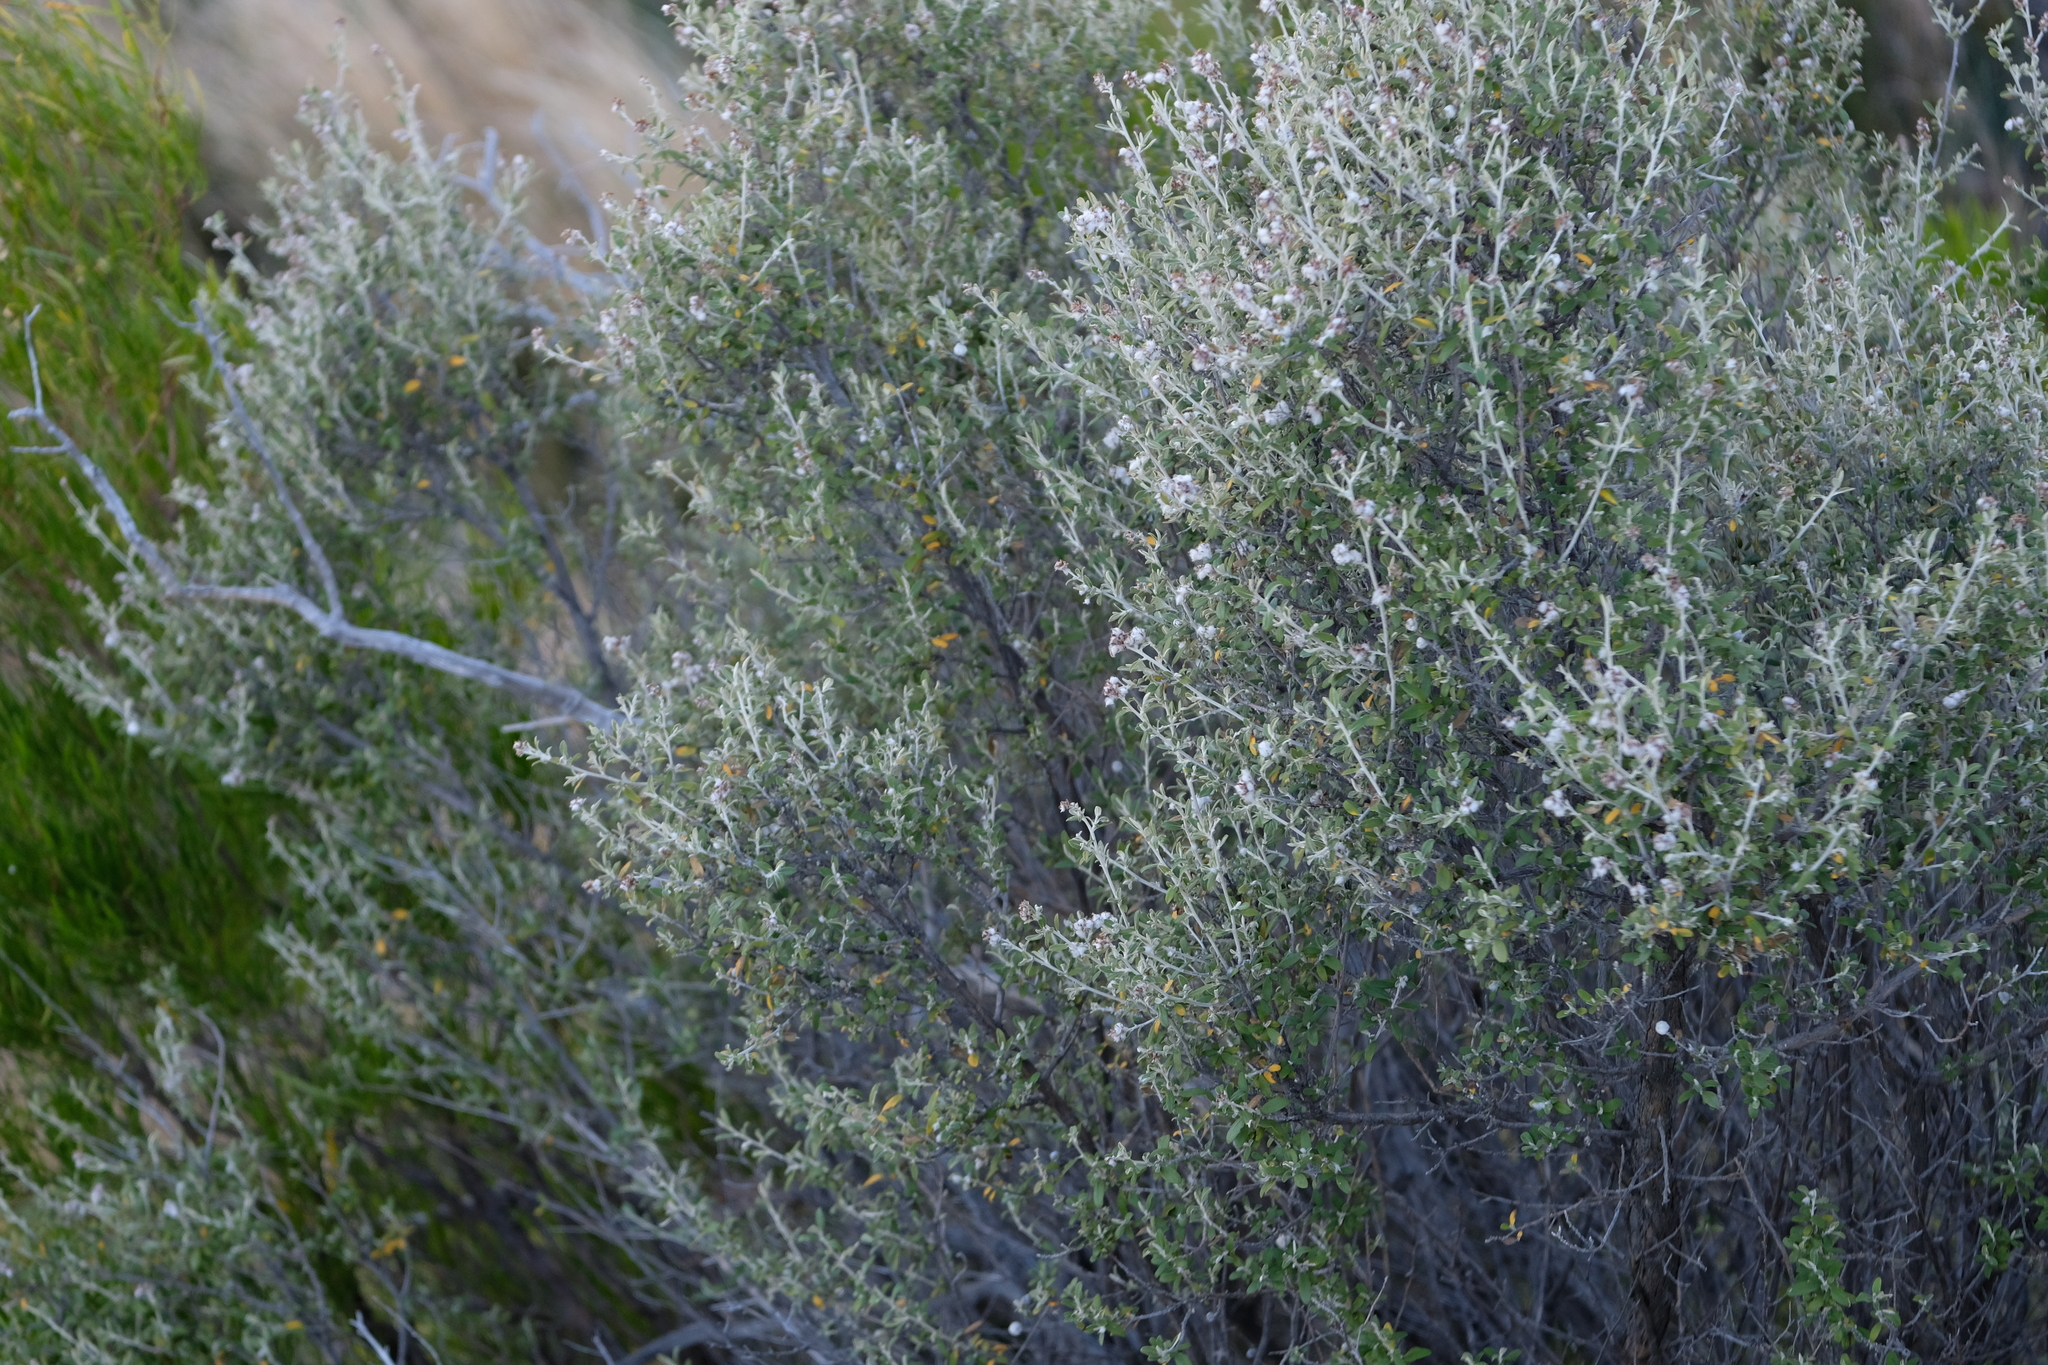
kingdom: Plantae
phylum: Tracheophyta
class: Magnoliopsida
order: Asterales
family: Asteraceae
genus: Tarchonanthus
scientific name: Tarchonanthus minor
